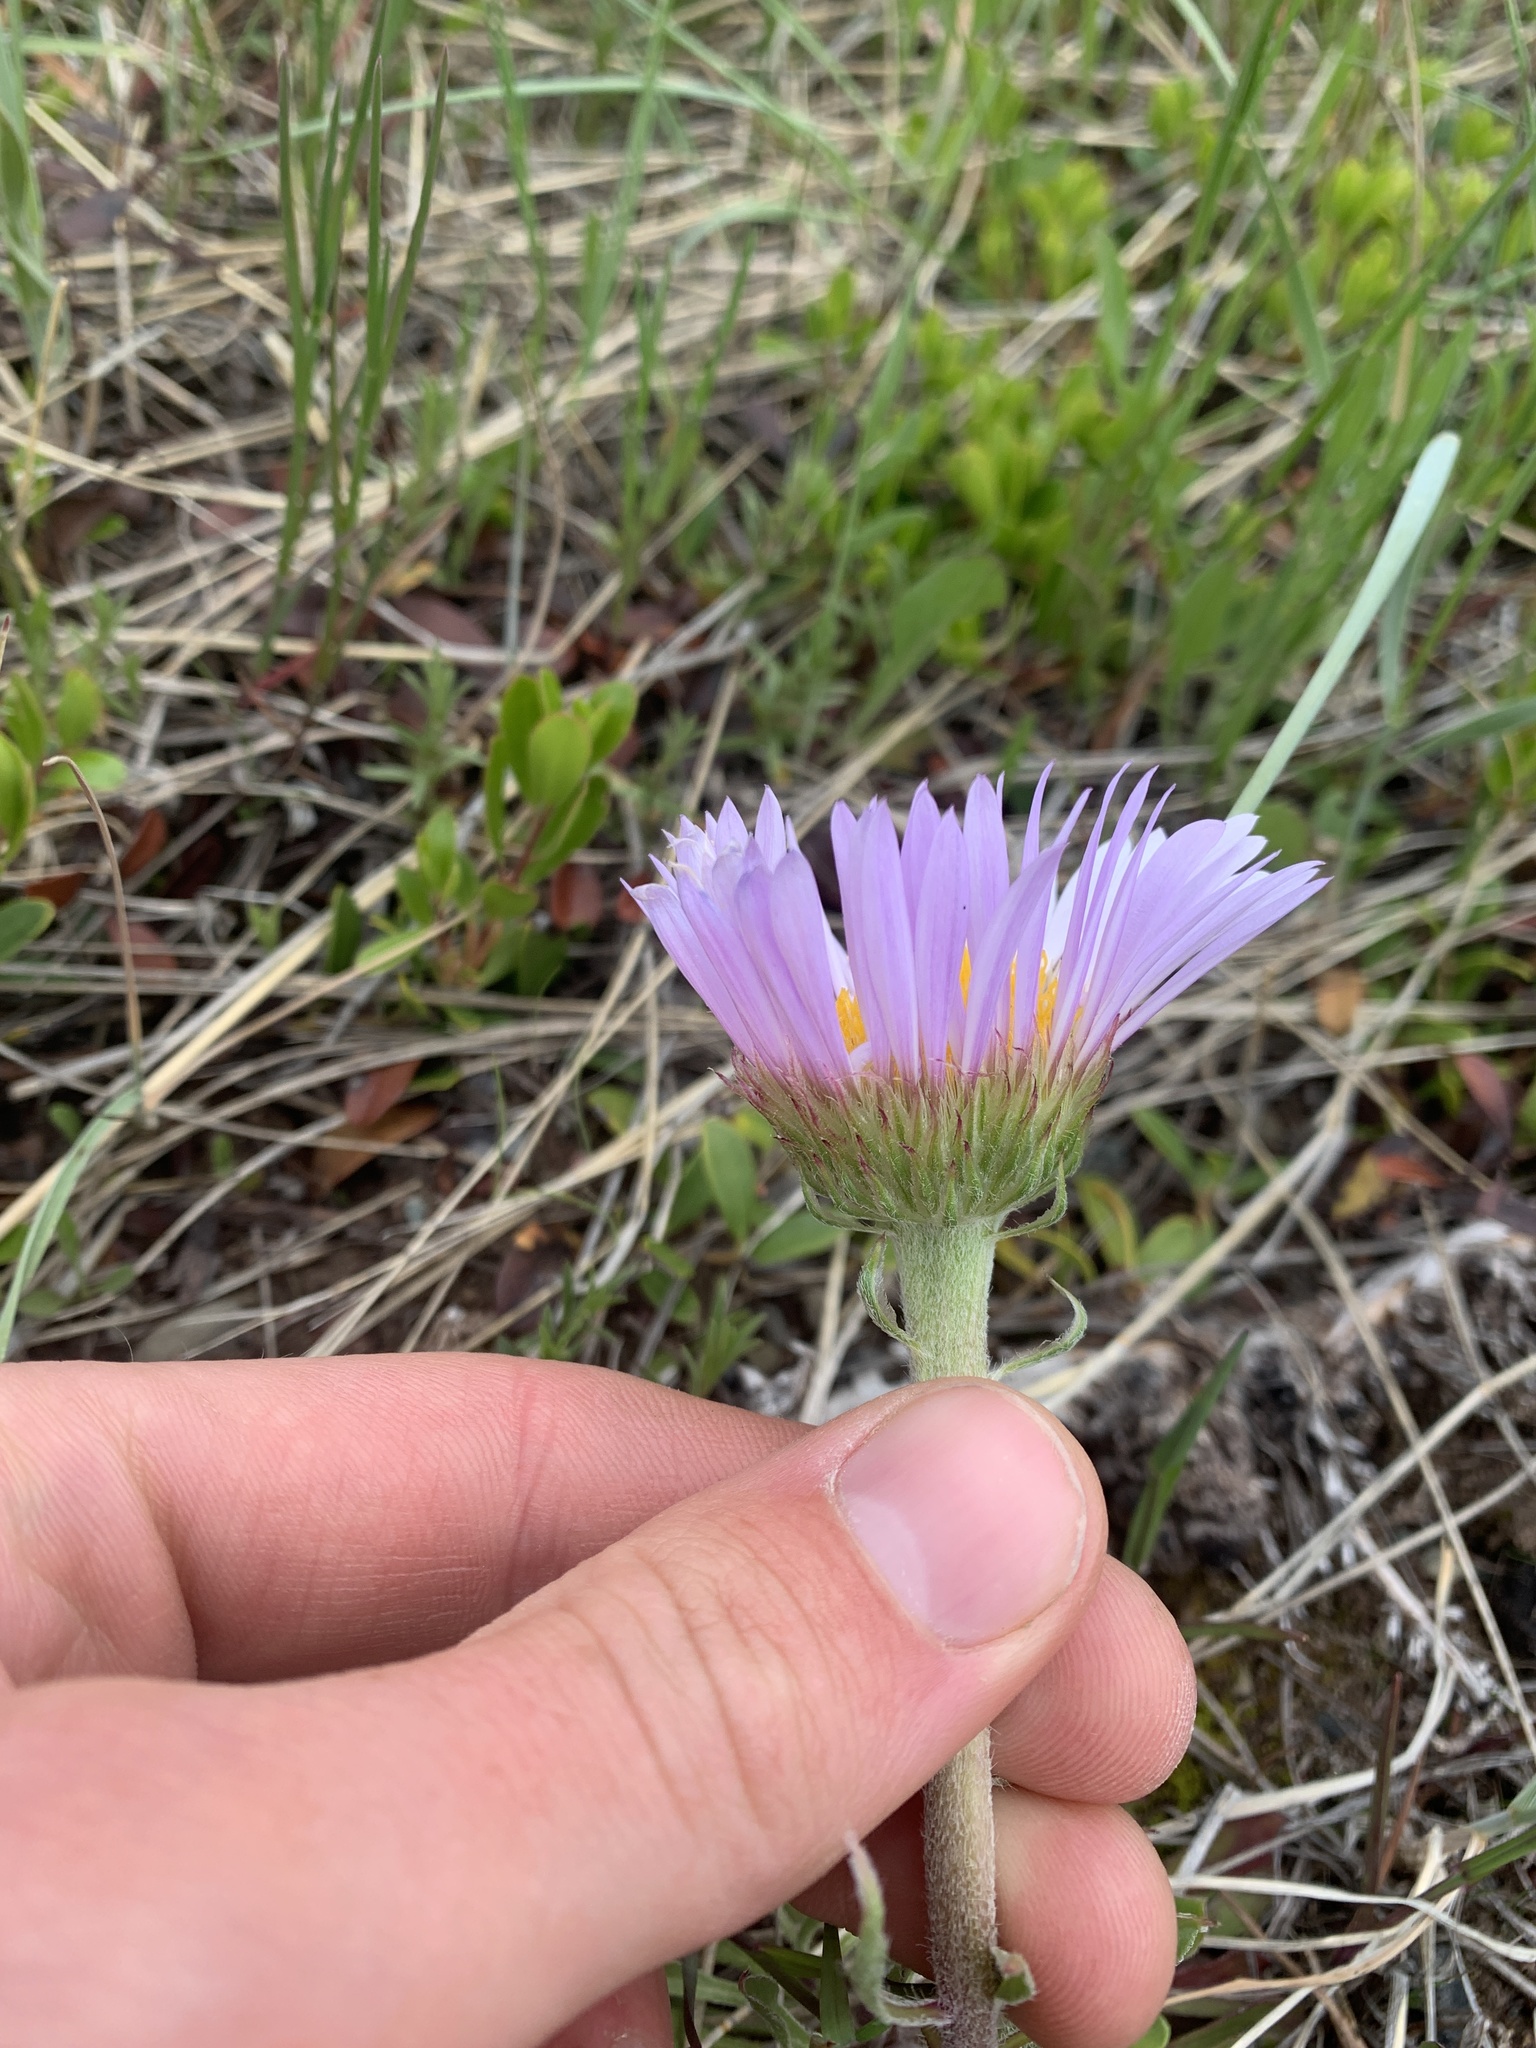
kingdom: Plantae
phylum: Tracheophyta
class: Magnoliopsida
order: Asterales
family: Asteraceae
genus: Townsendia
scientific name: Townsendia parryi
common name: Parry's townsend daisy
